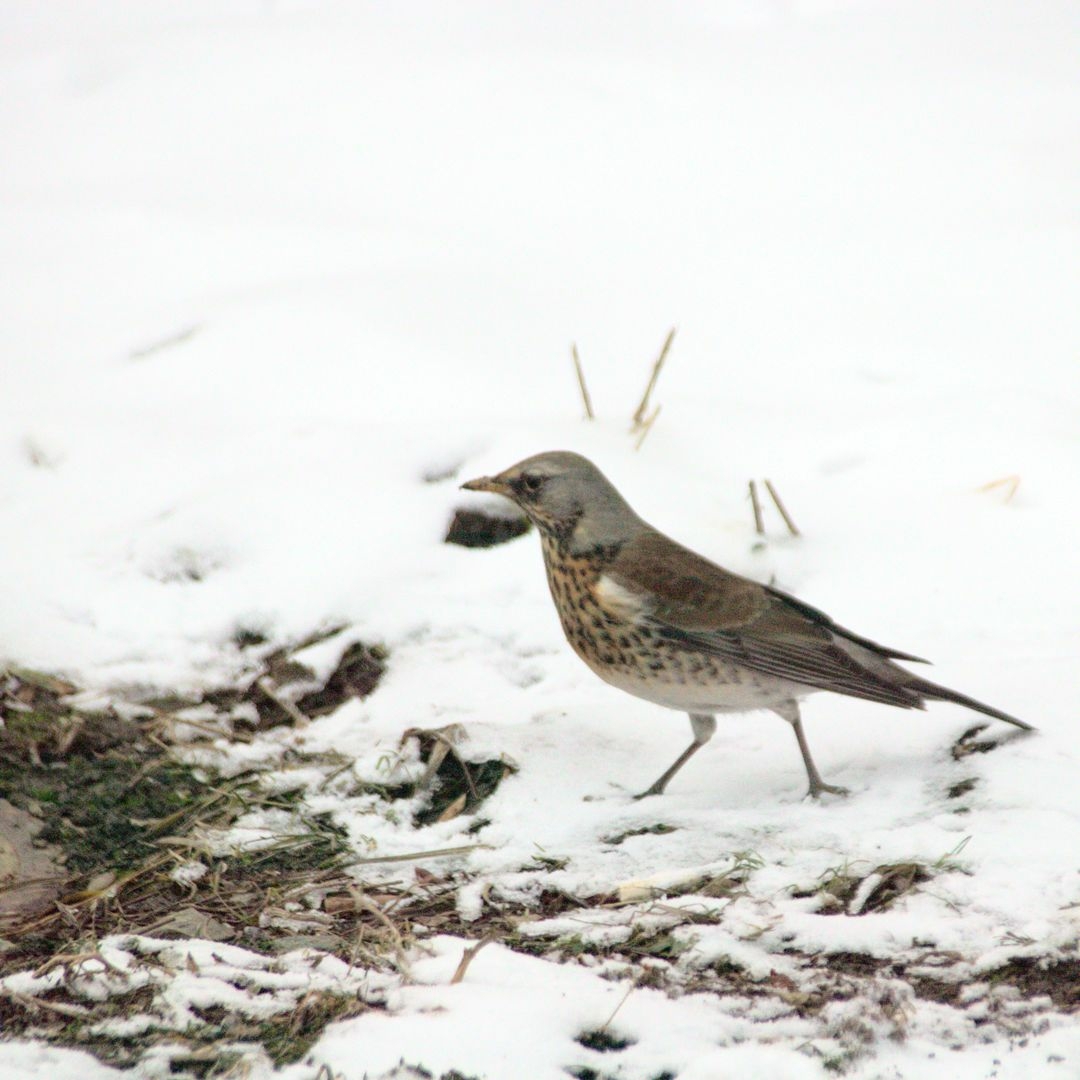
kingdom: Animalia
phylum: Chordata
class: Aves
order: Passeriformes
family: Turdidae
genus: Turdus
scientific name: Turdus pilaris
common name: Fieldfare
